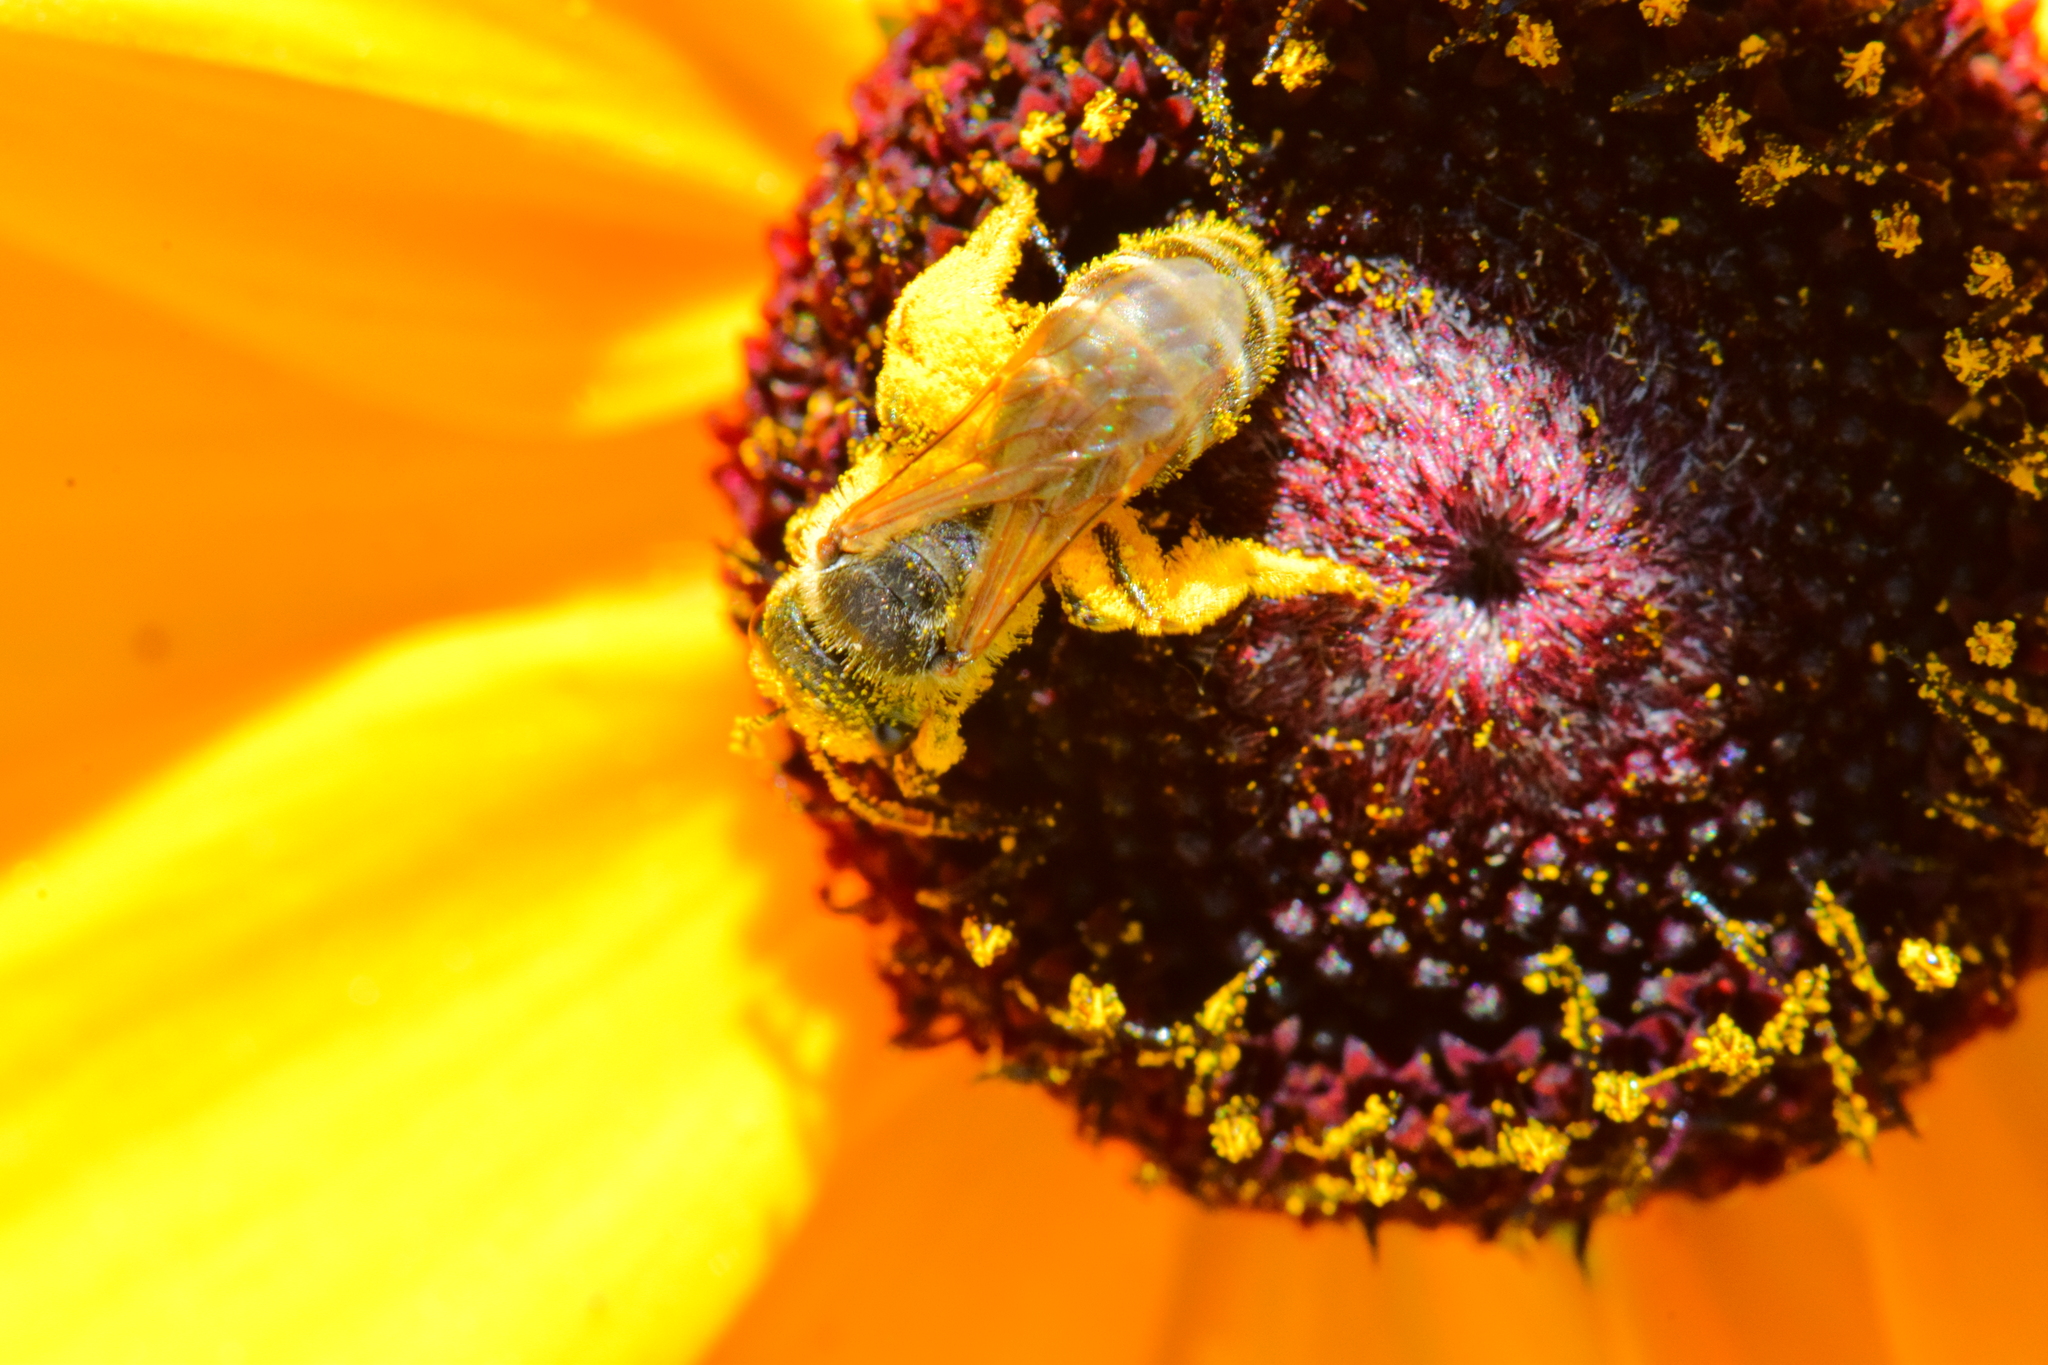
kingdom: Animalia
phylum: Arthropoda
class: Insecta
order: Hymenoptera
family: Halictidae
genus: Halictus
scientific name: Halictus ligatus
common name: Ligated furrow bee
